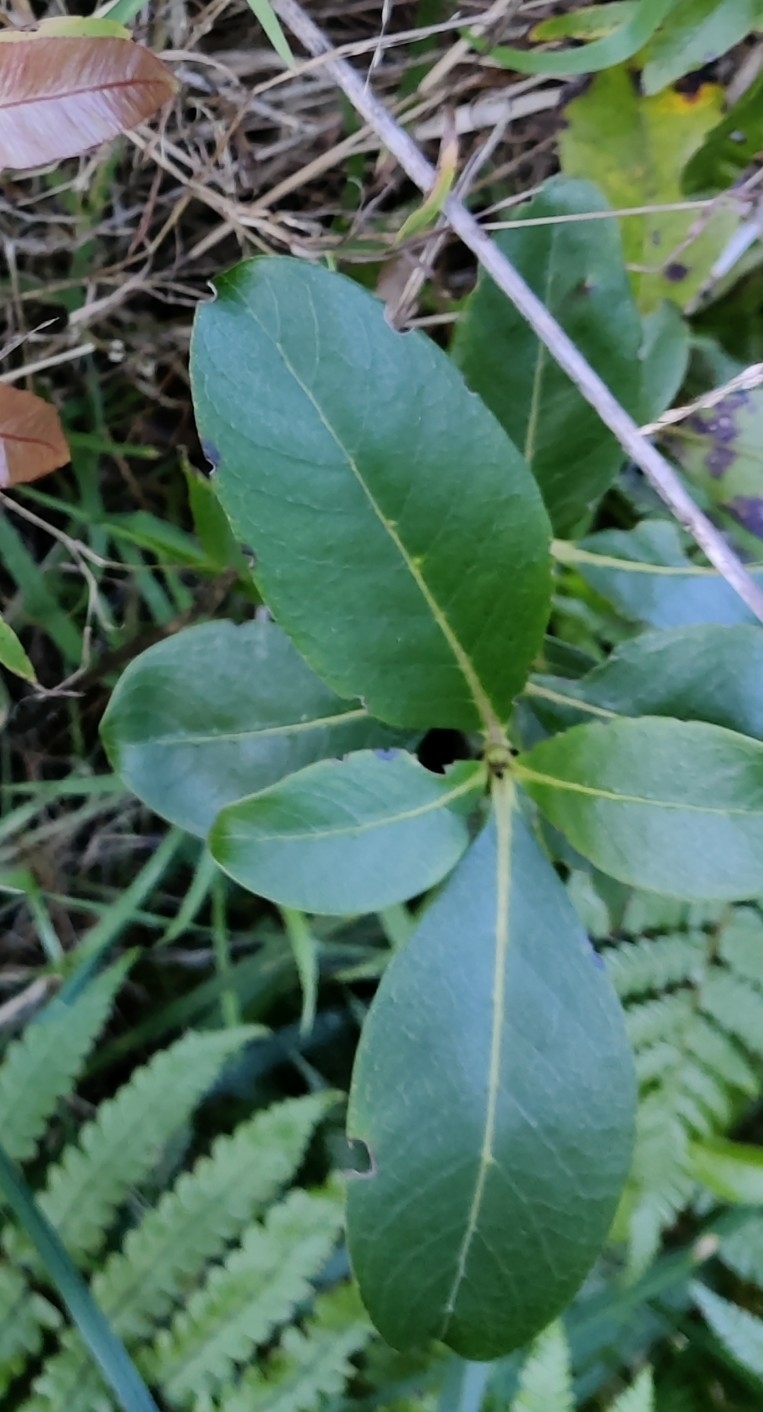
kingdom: Plantae
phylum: Tracheophyta
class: Magnoliopsida
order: Gentianales
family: Rubiaceae
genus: Coprosma
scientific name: Coprosma robusta
